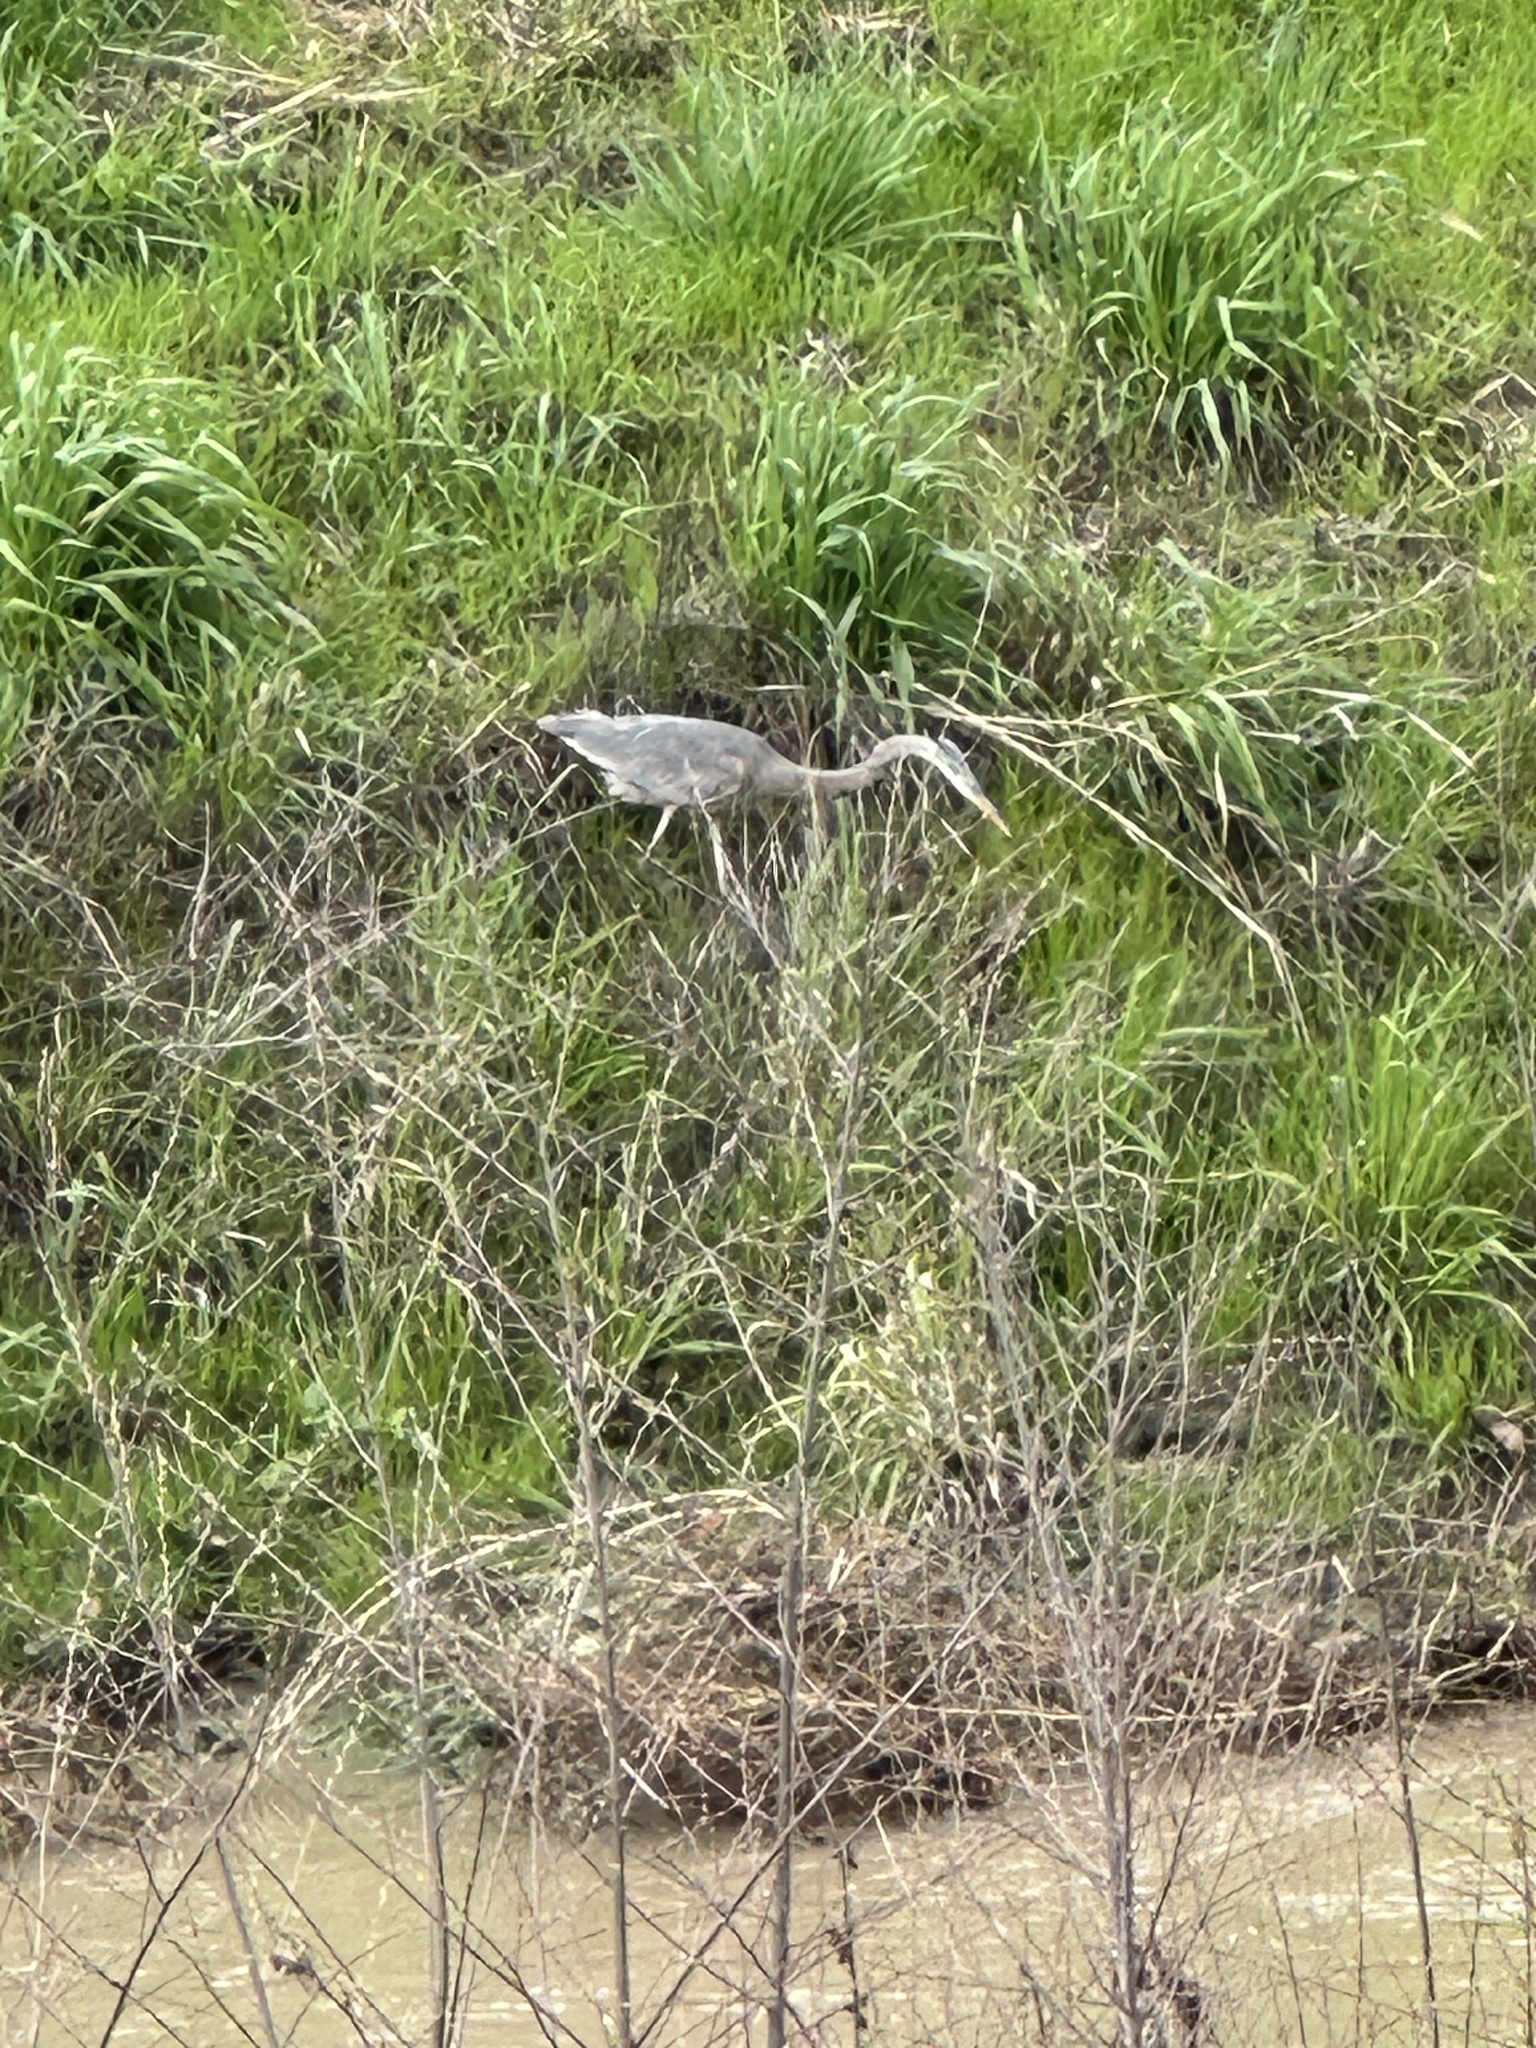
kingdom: Animalia
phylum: Chordata
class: Aves
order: Pelecaniformes
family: Ardeidae
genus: Ardea
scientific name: Ardea herodias
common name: Great blue heron
